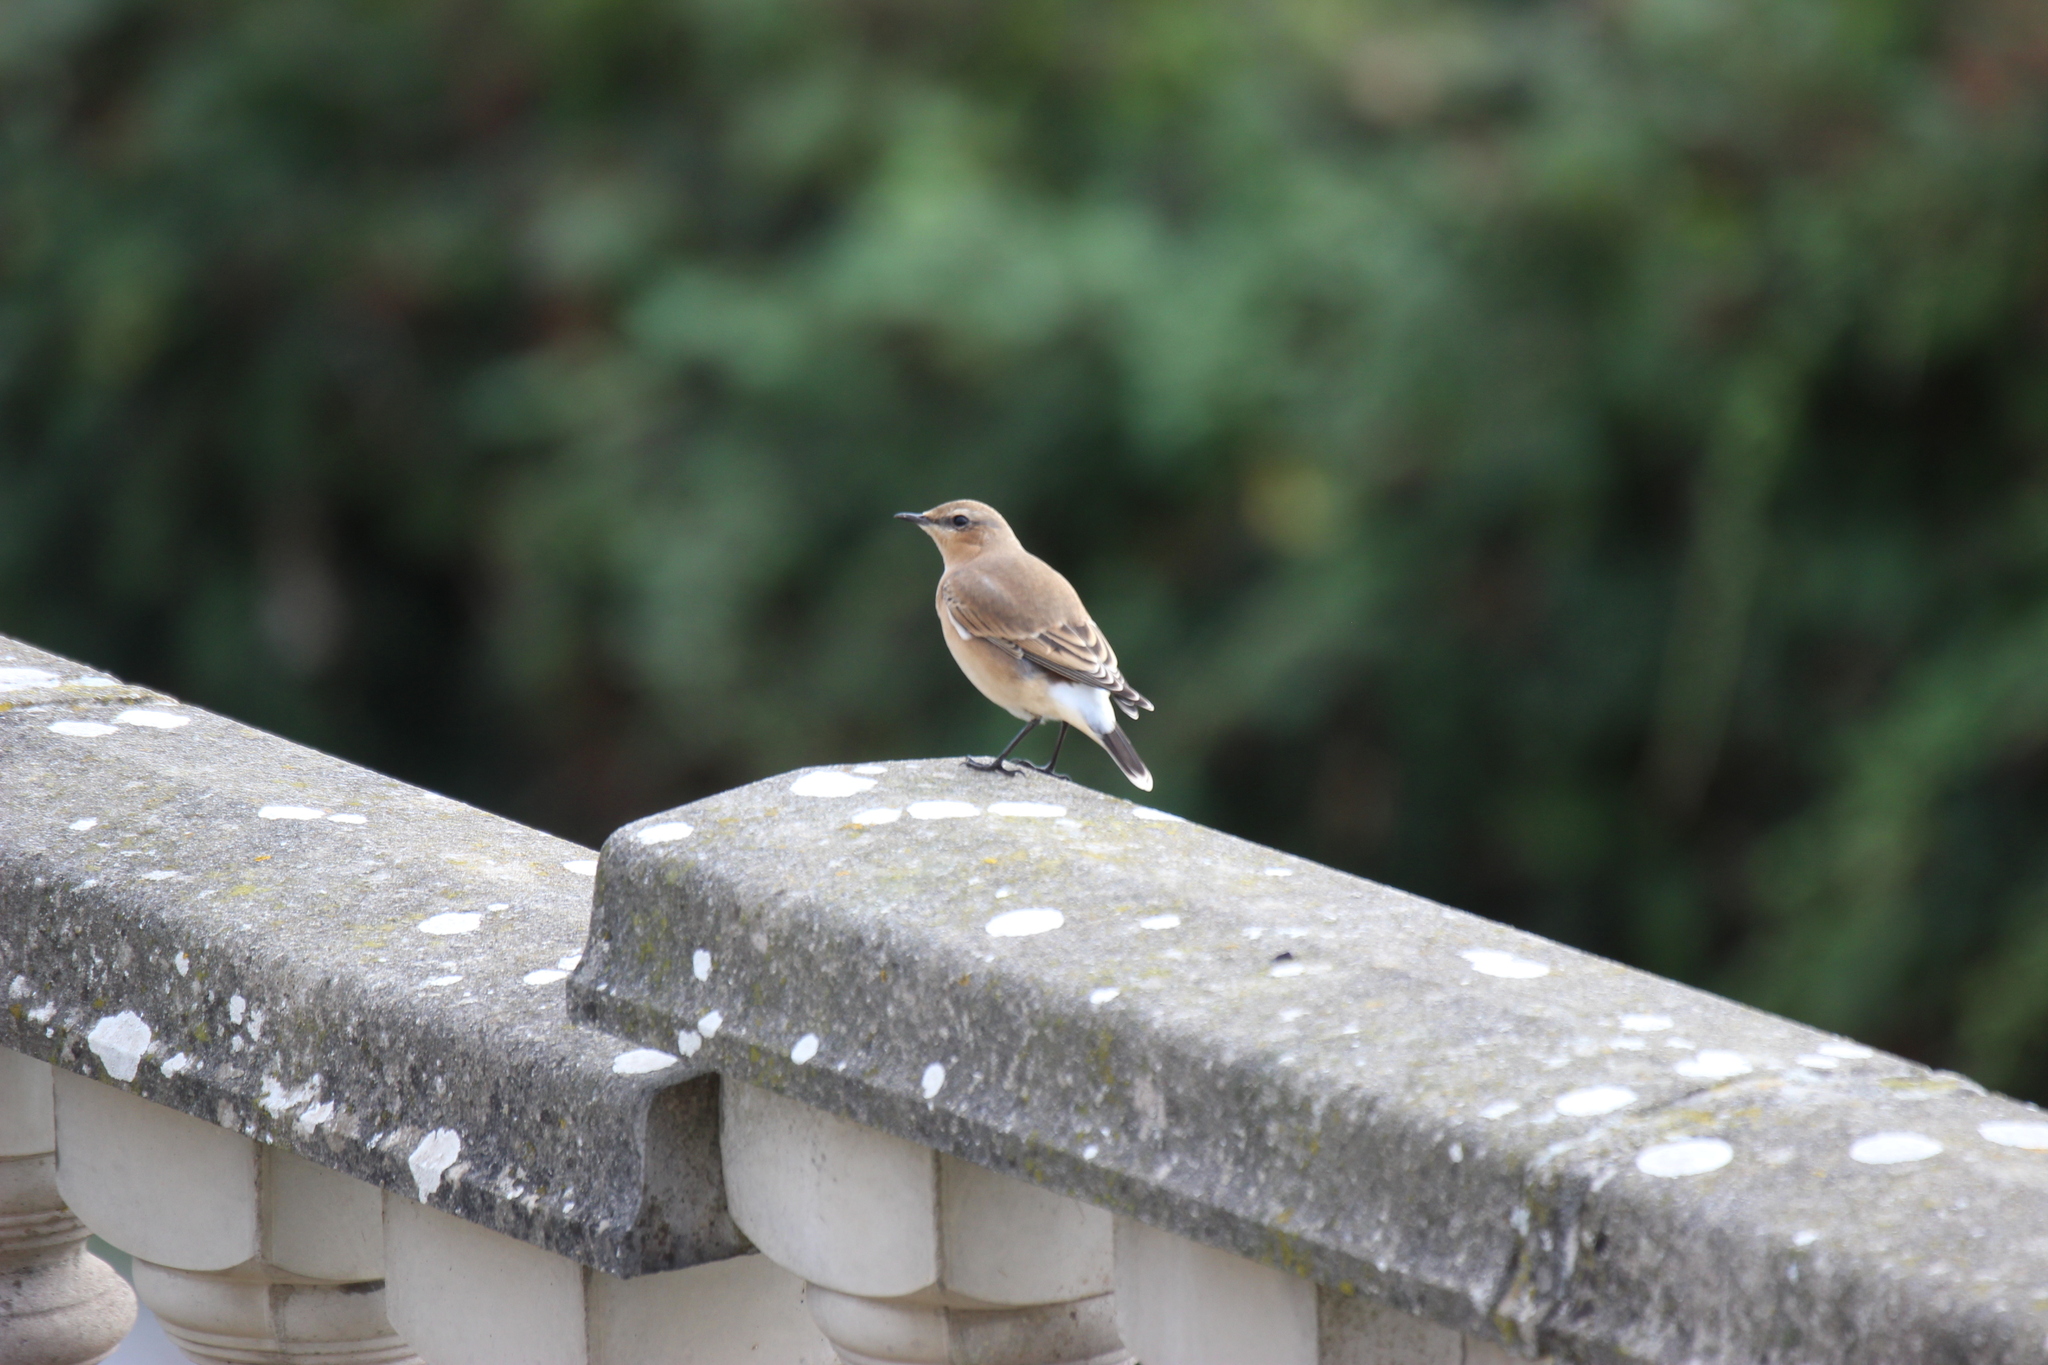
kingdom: Animalia
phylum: Chordata
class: Aves
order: Passeriformes
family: Muscicapidae
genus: Oenanthe
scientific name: Oenanthe oenanthe
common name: Northern wheatear
